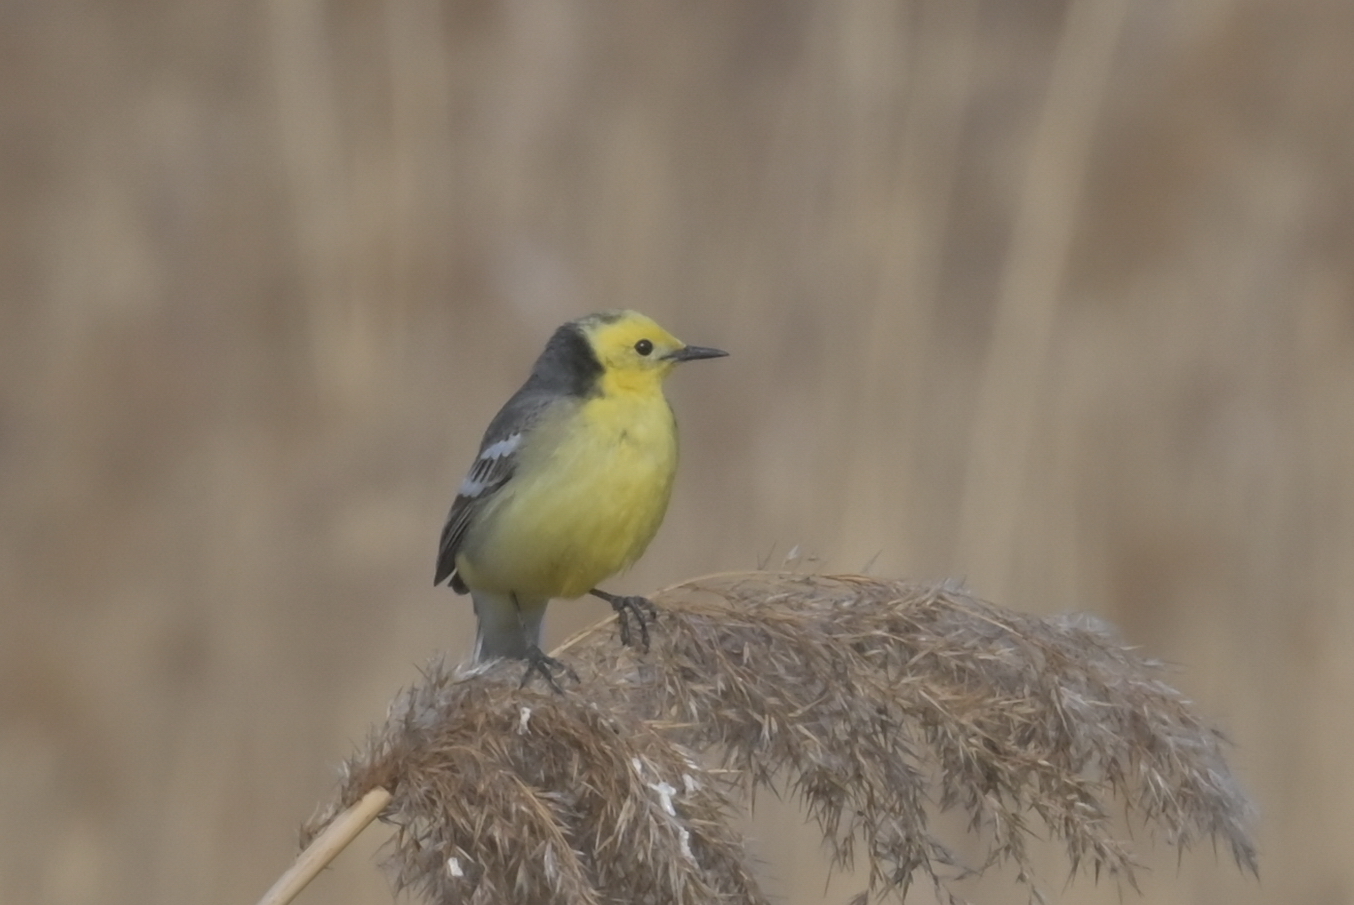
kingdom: Animalia
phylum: Chordata
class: Aves
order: Passeriformes
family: Motacillidae
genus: Motacilla
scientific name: Motacilla citreola
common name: Citrine wagtail
